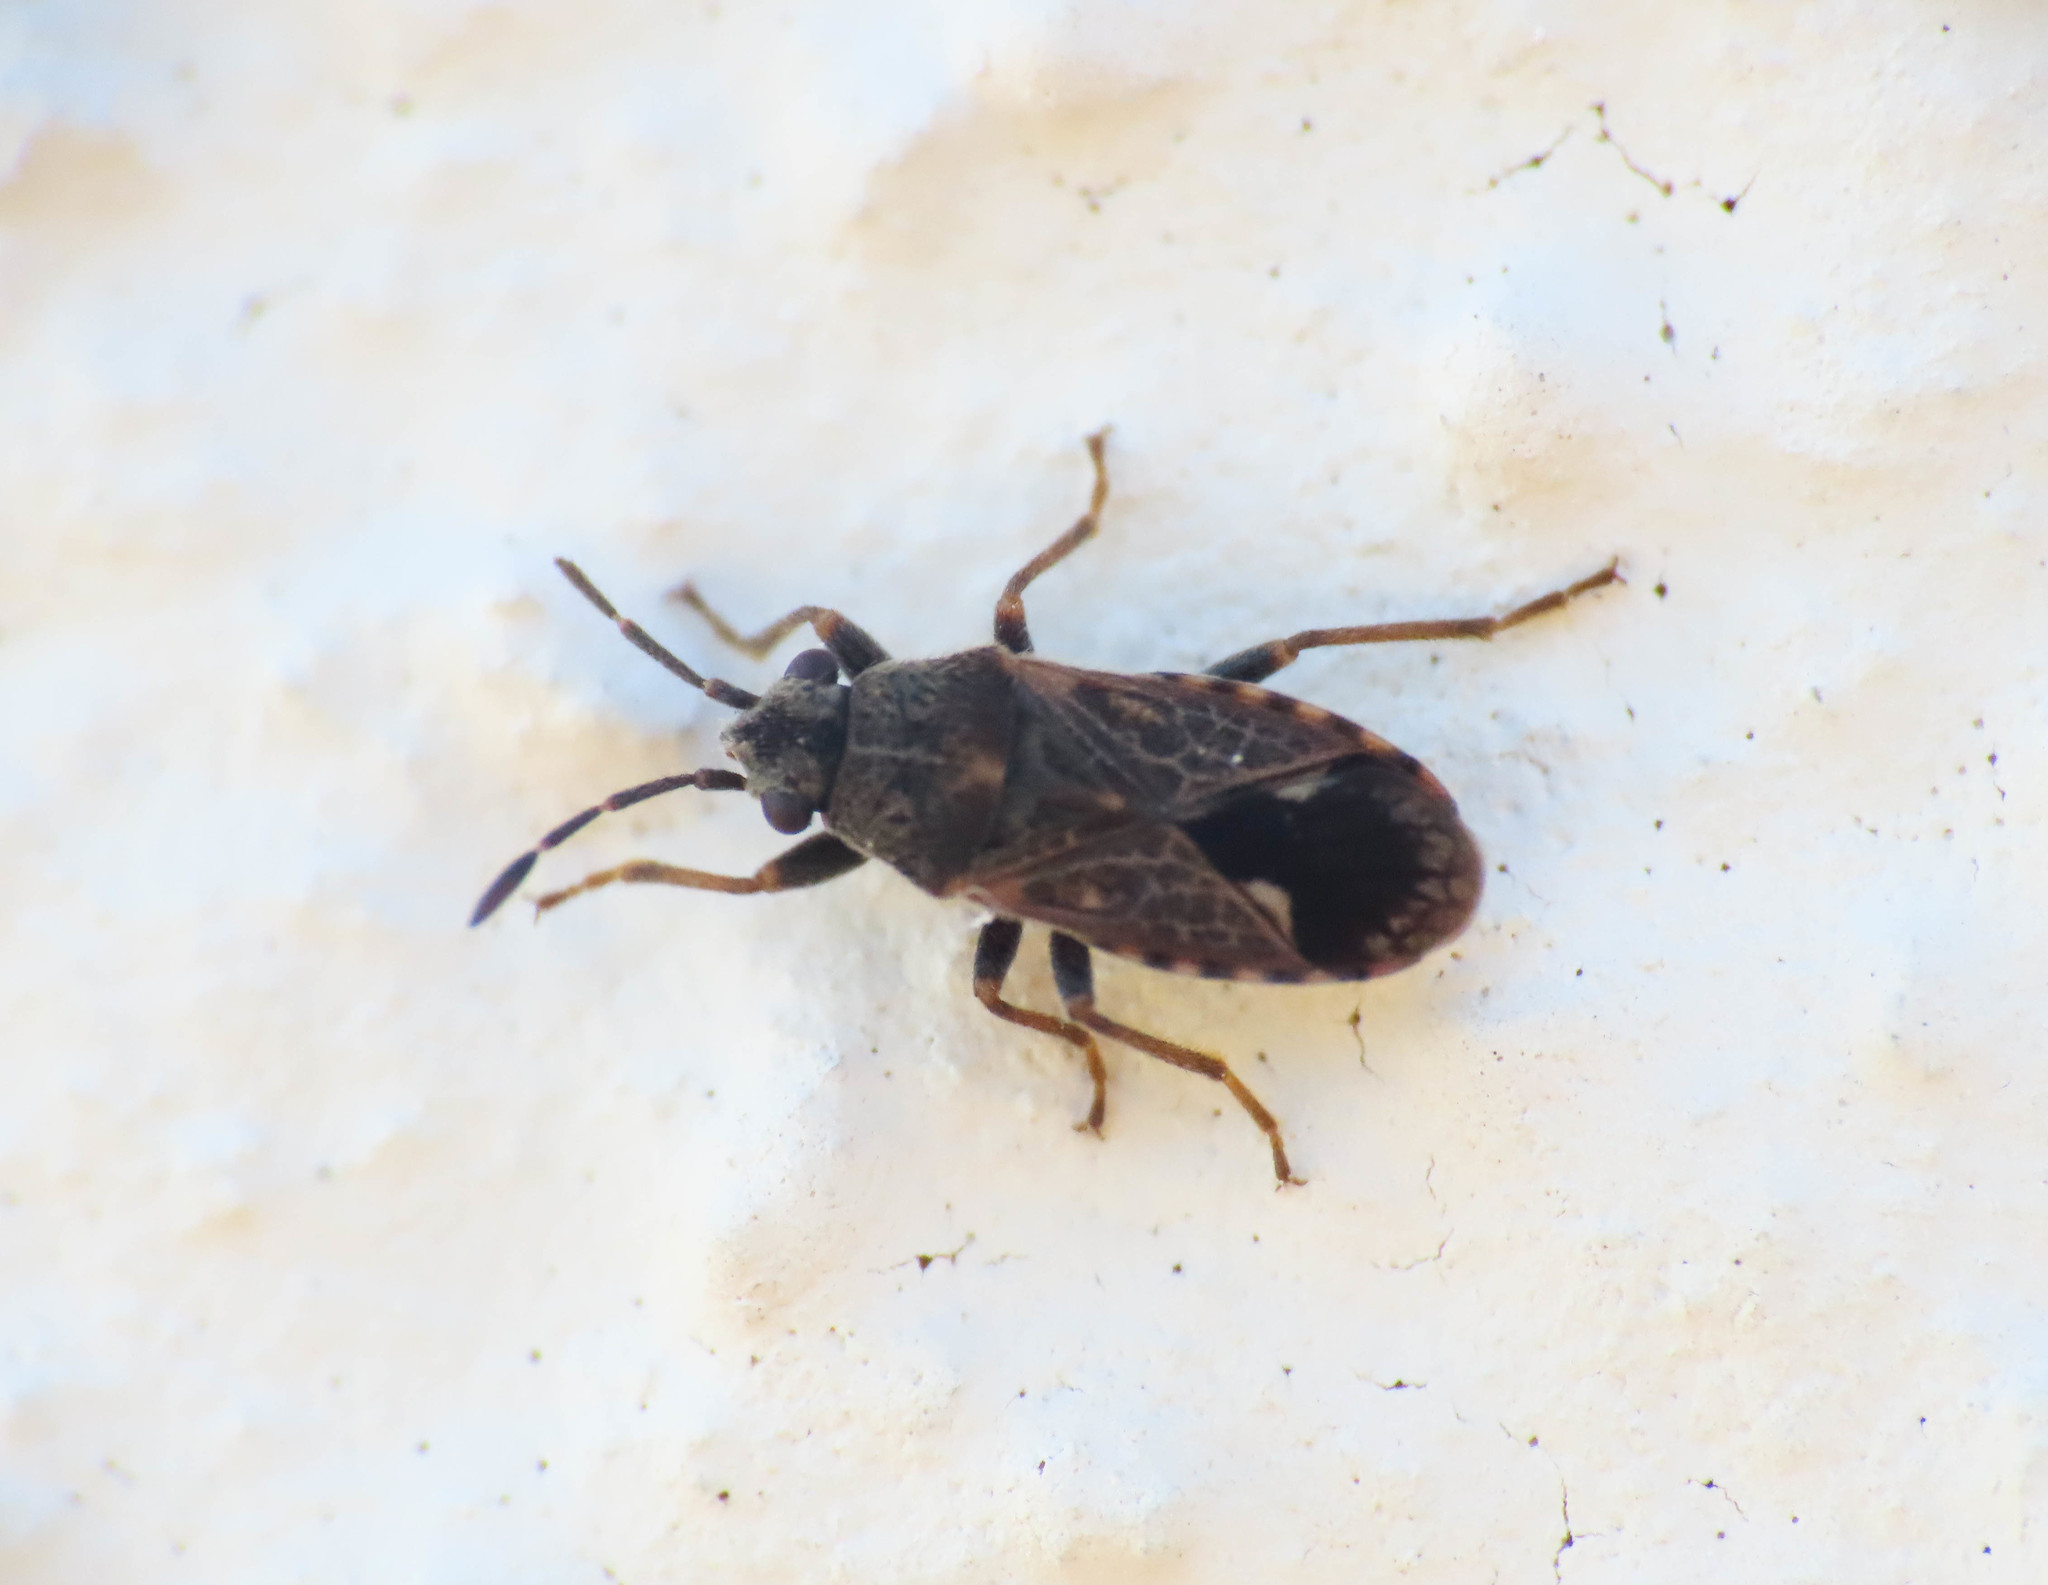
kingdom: Animalia
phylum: Arthropoda
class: Insecta
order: Hemiptera
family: Lygaeidae
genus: Lygaeosoma
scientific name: Lygaeosoma sardeum
